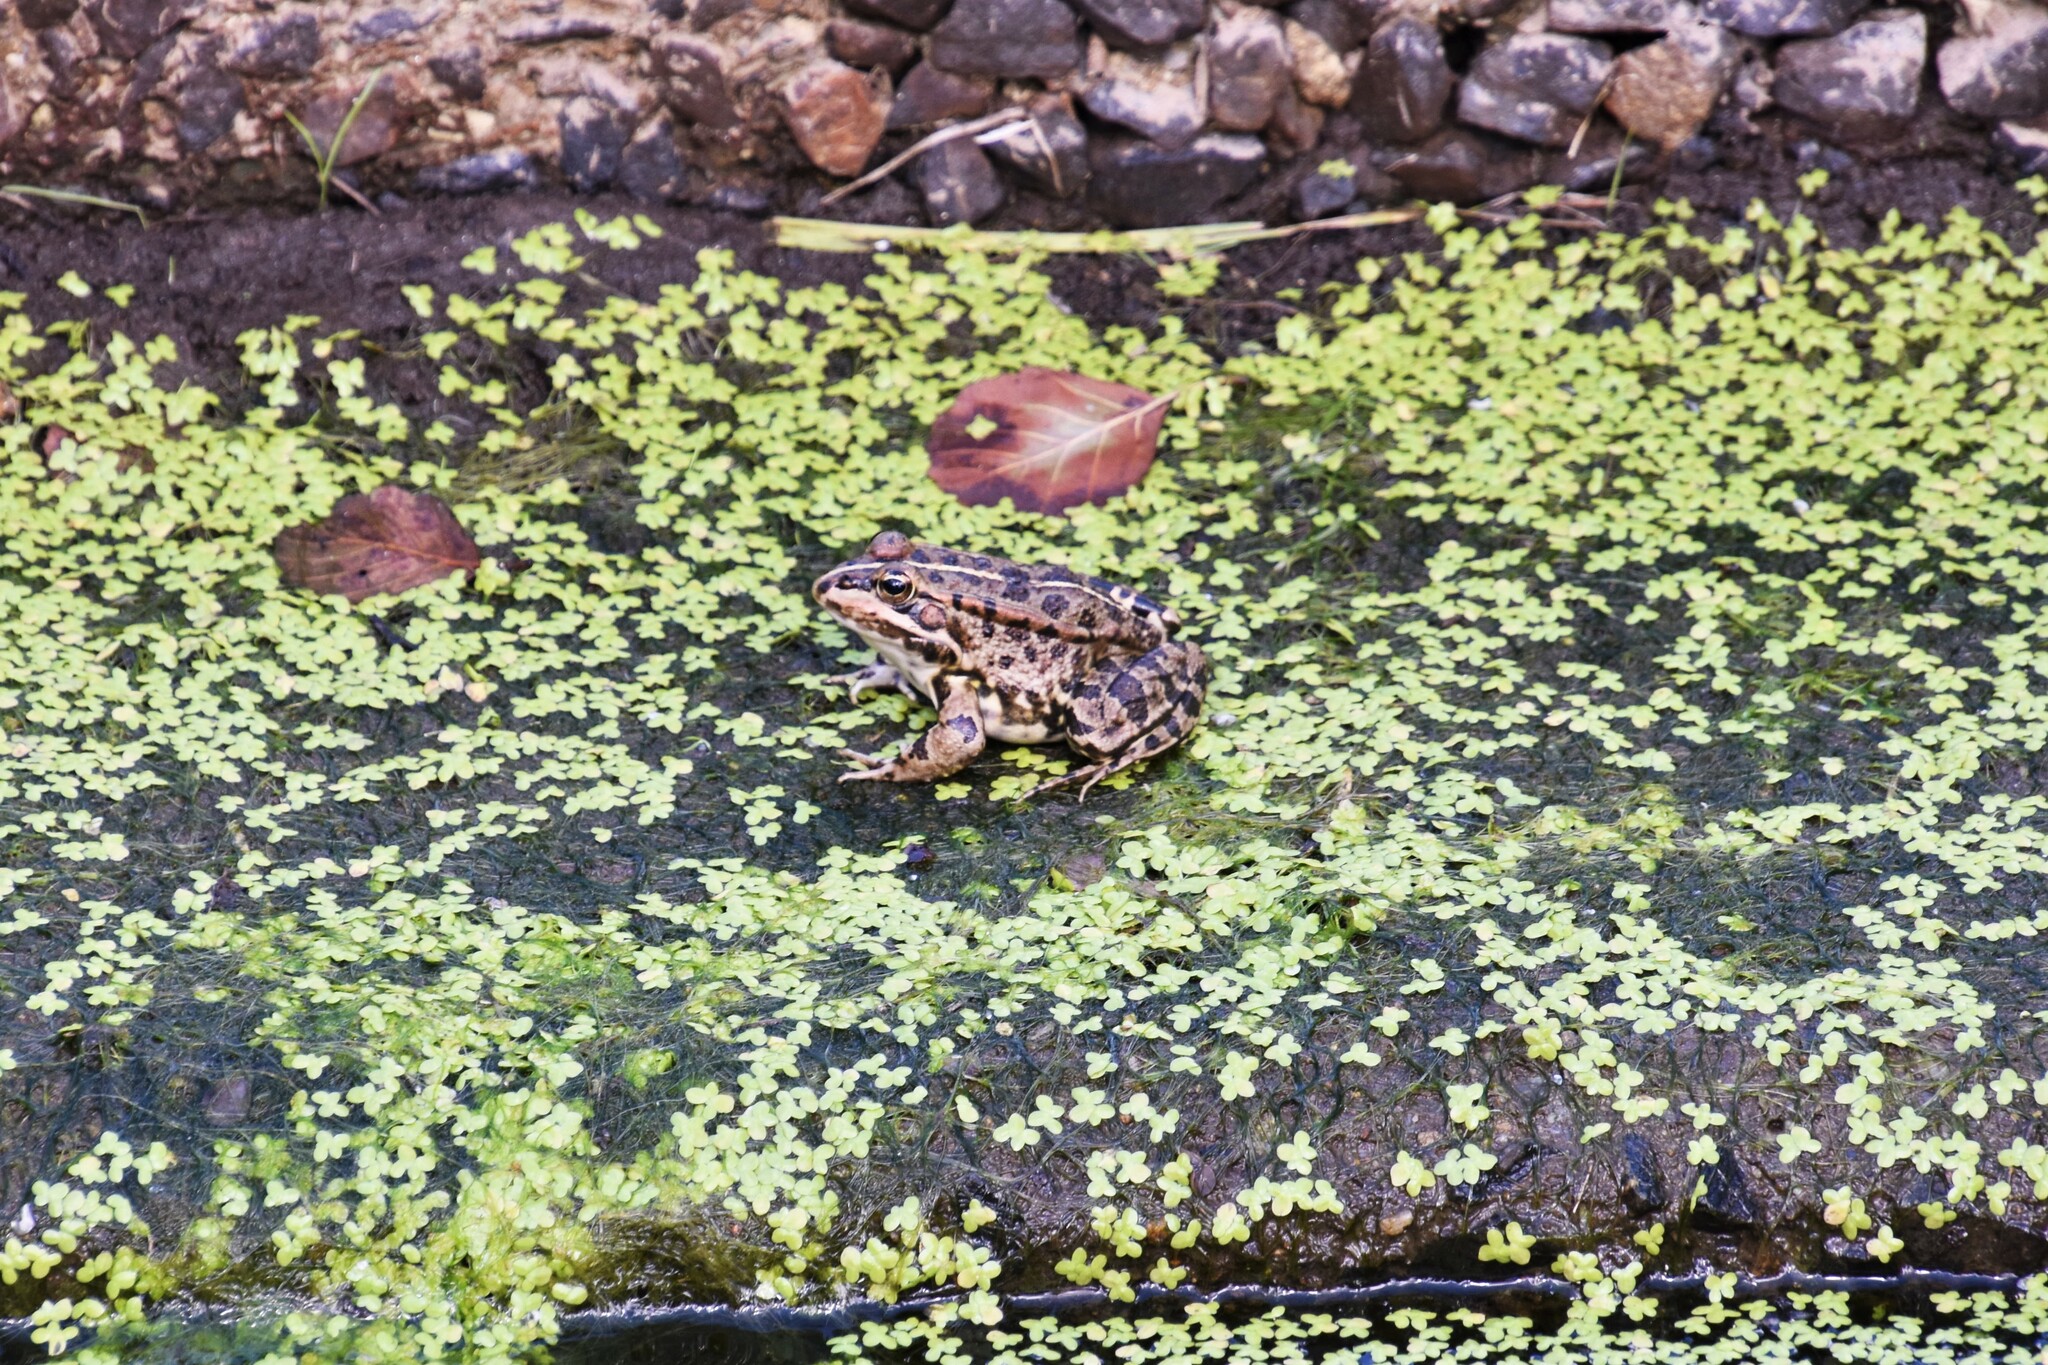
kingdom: Animalia
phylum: Chordata
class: Amphibia
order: Anura
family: Ranidae
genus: Pelophylax
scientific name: Pelophylax perezi
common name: Perez's frog
